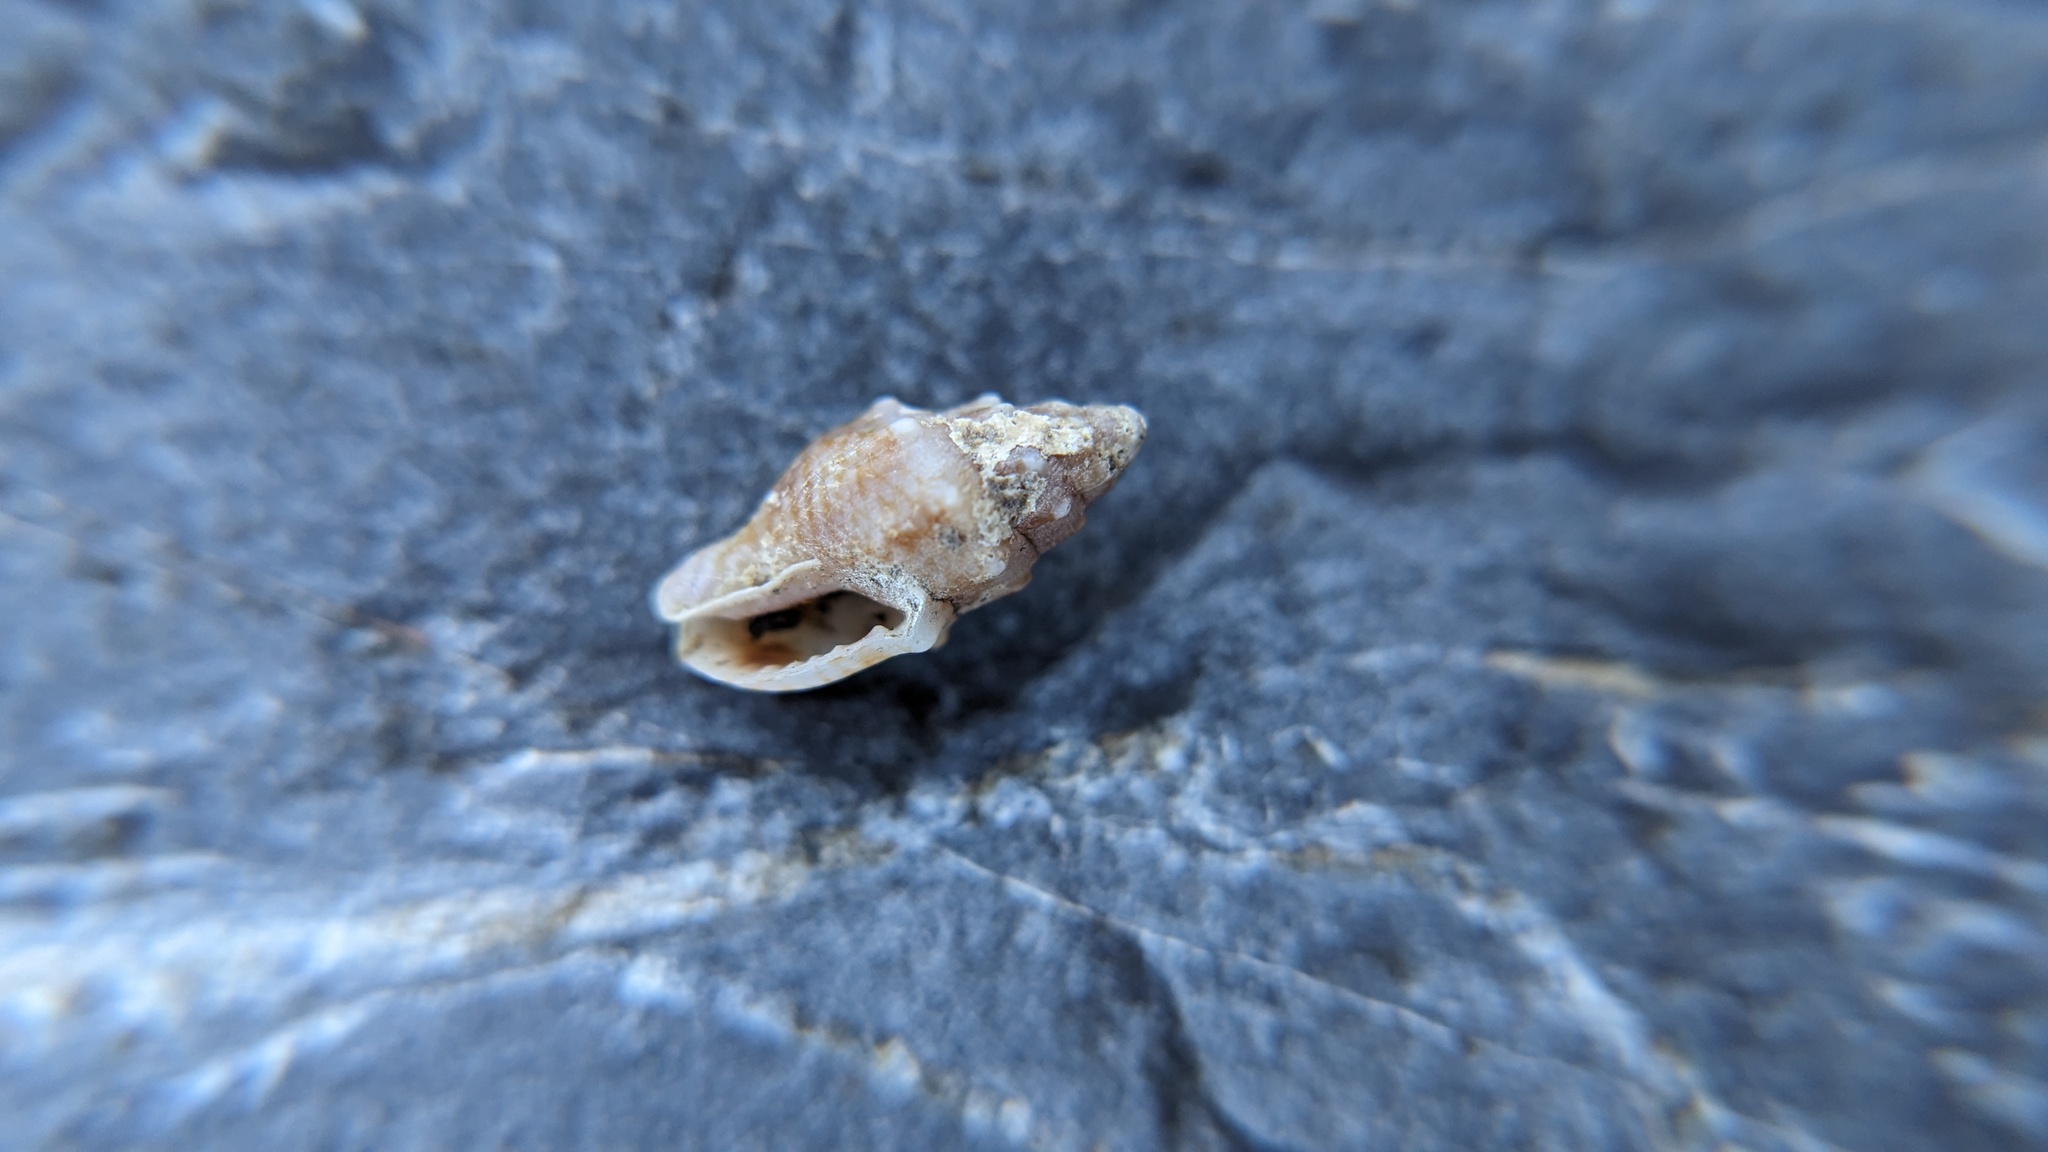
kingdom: Animalia
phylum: Mollusca
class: Gastropoda
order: Neogastropoda
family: Columbellidae
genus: Anachis
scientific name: Anachis coronata
